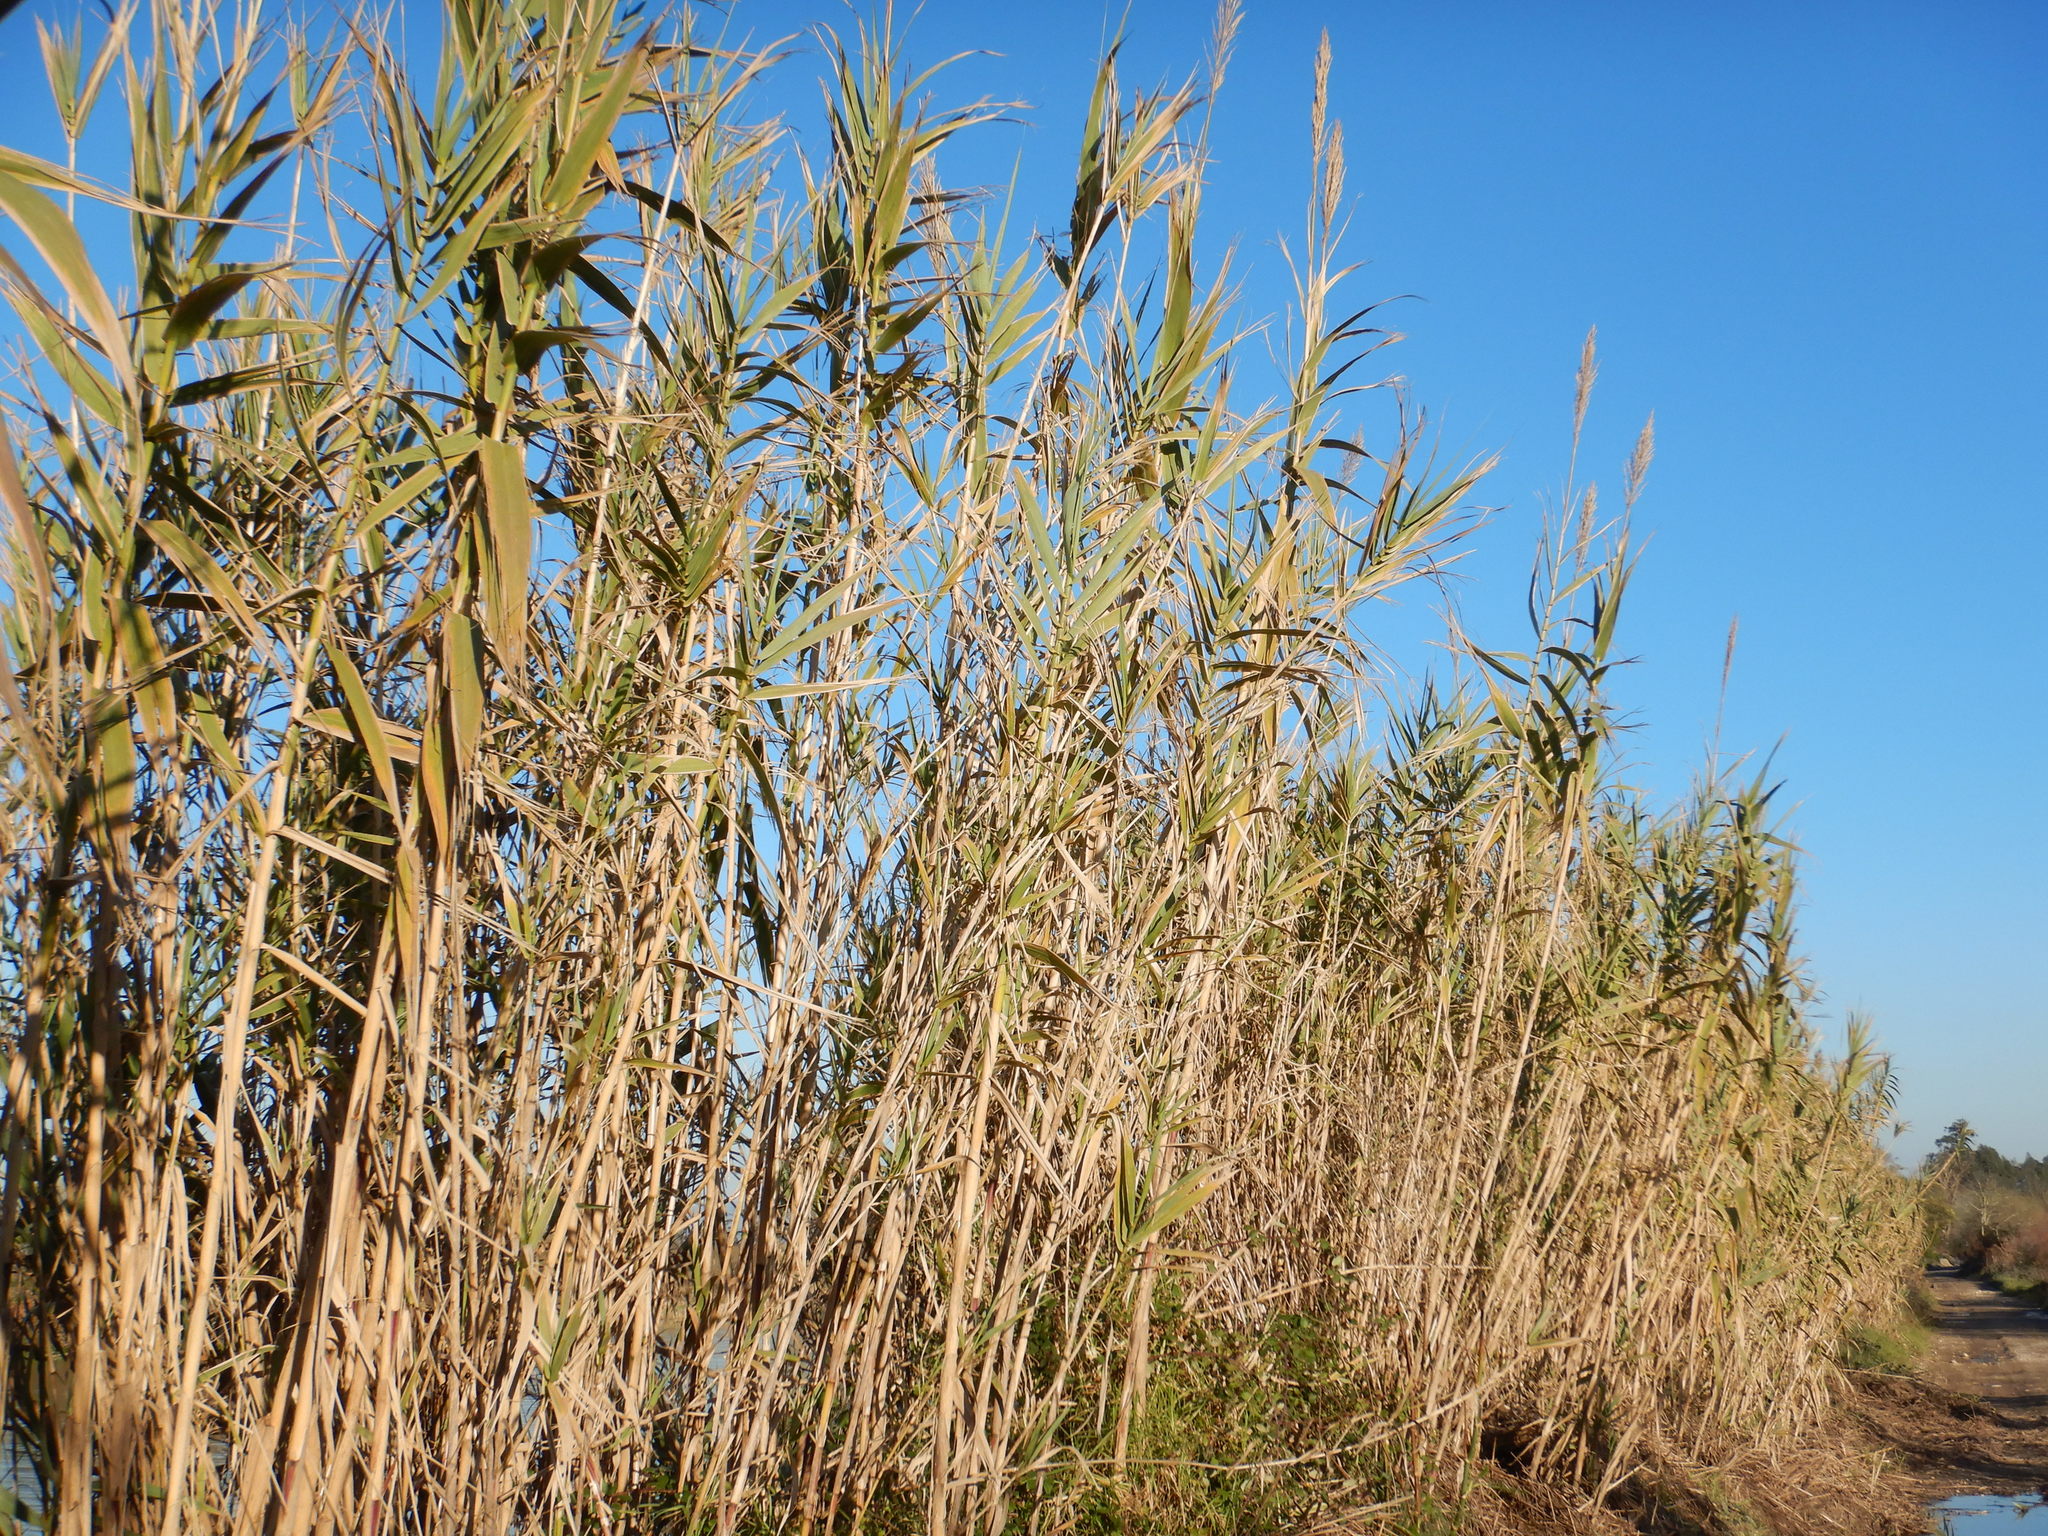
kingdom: Plantae
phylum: Tracheophyta
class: Liliopsida
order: Poales
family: Poaceae
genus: Arundo
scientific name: Arundo donax
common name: Giant reed
